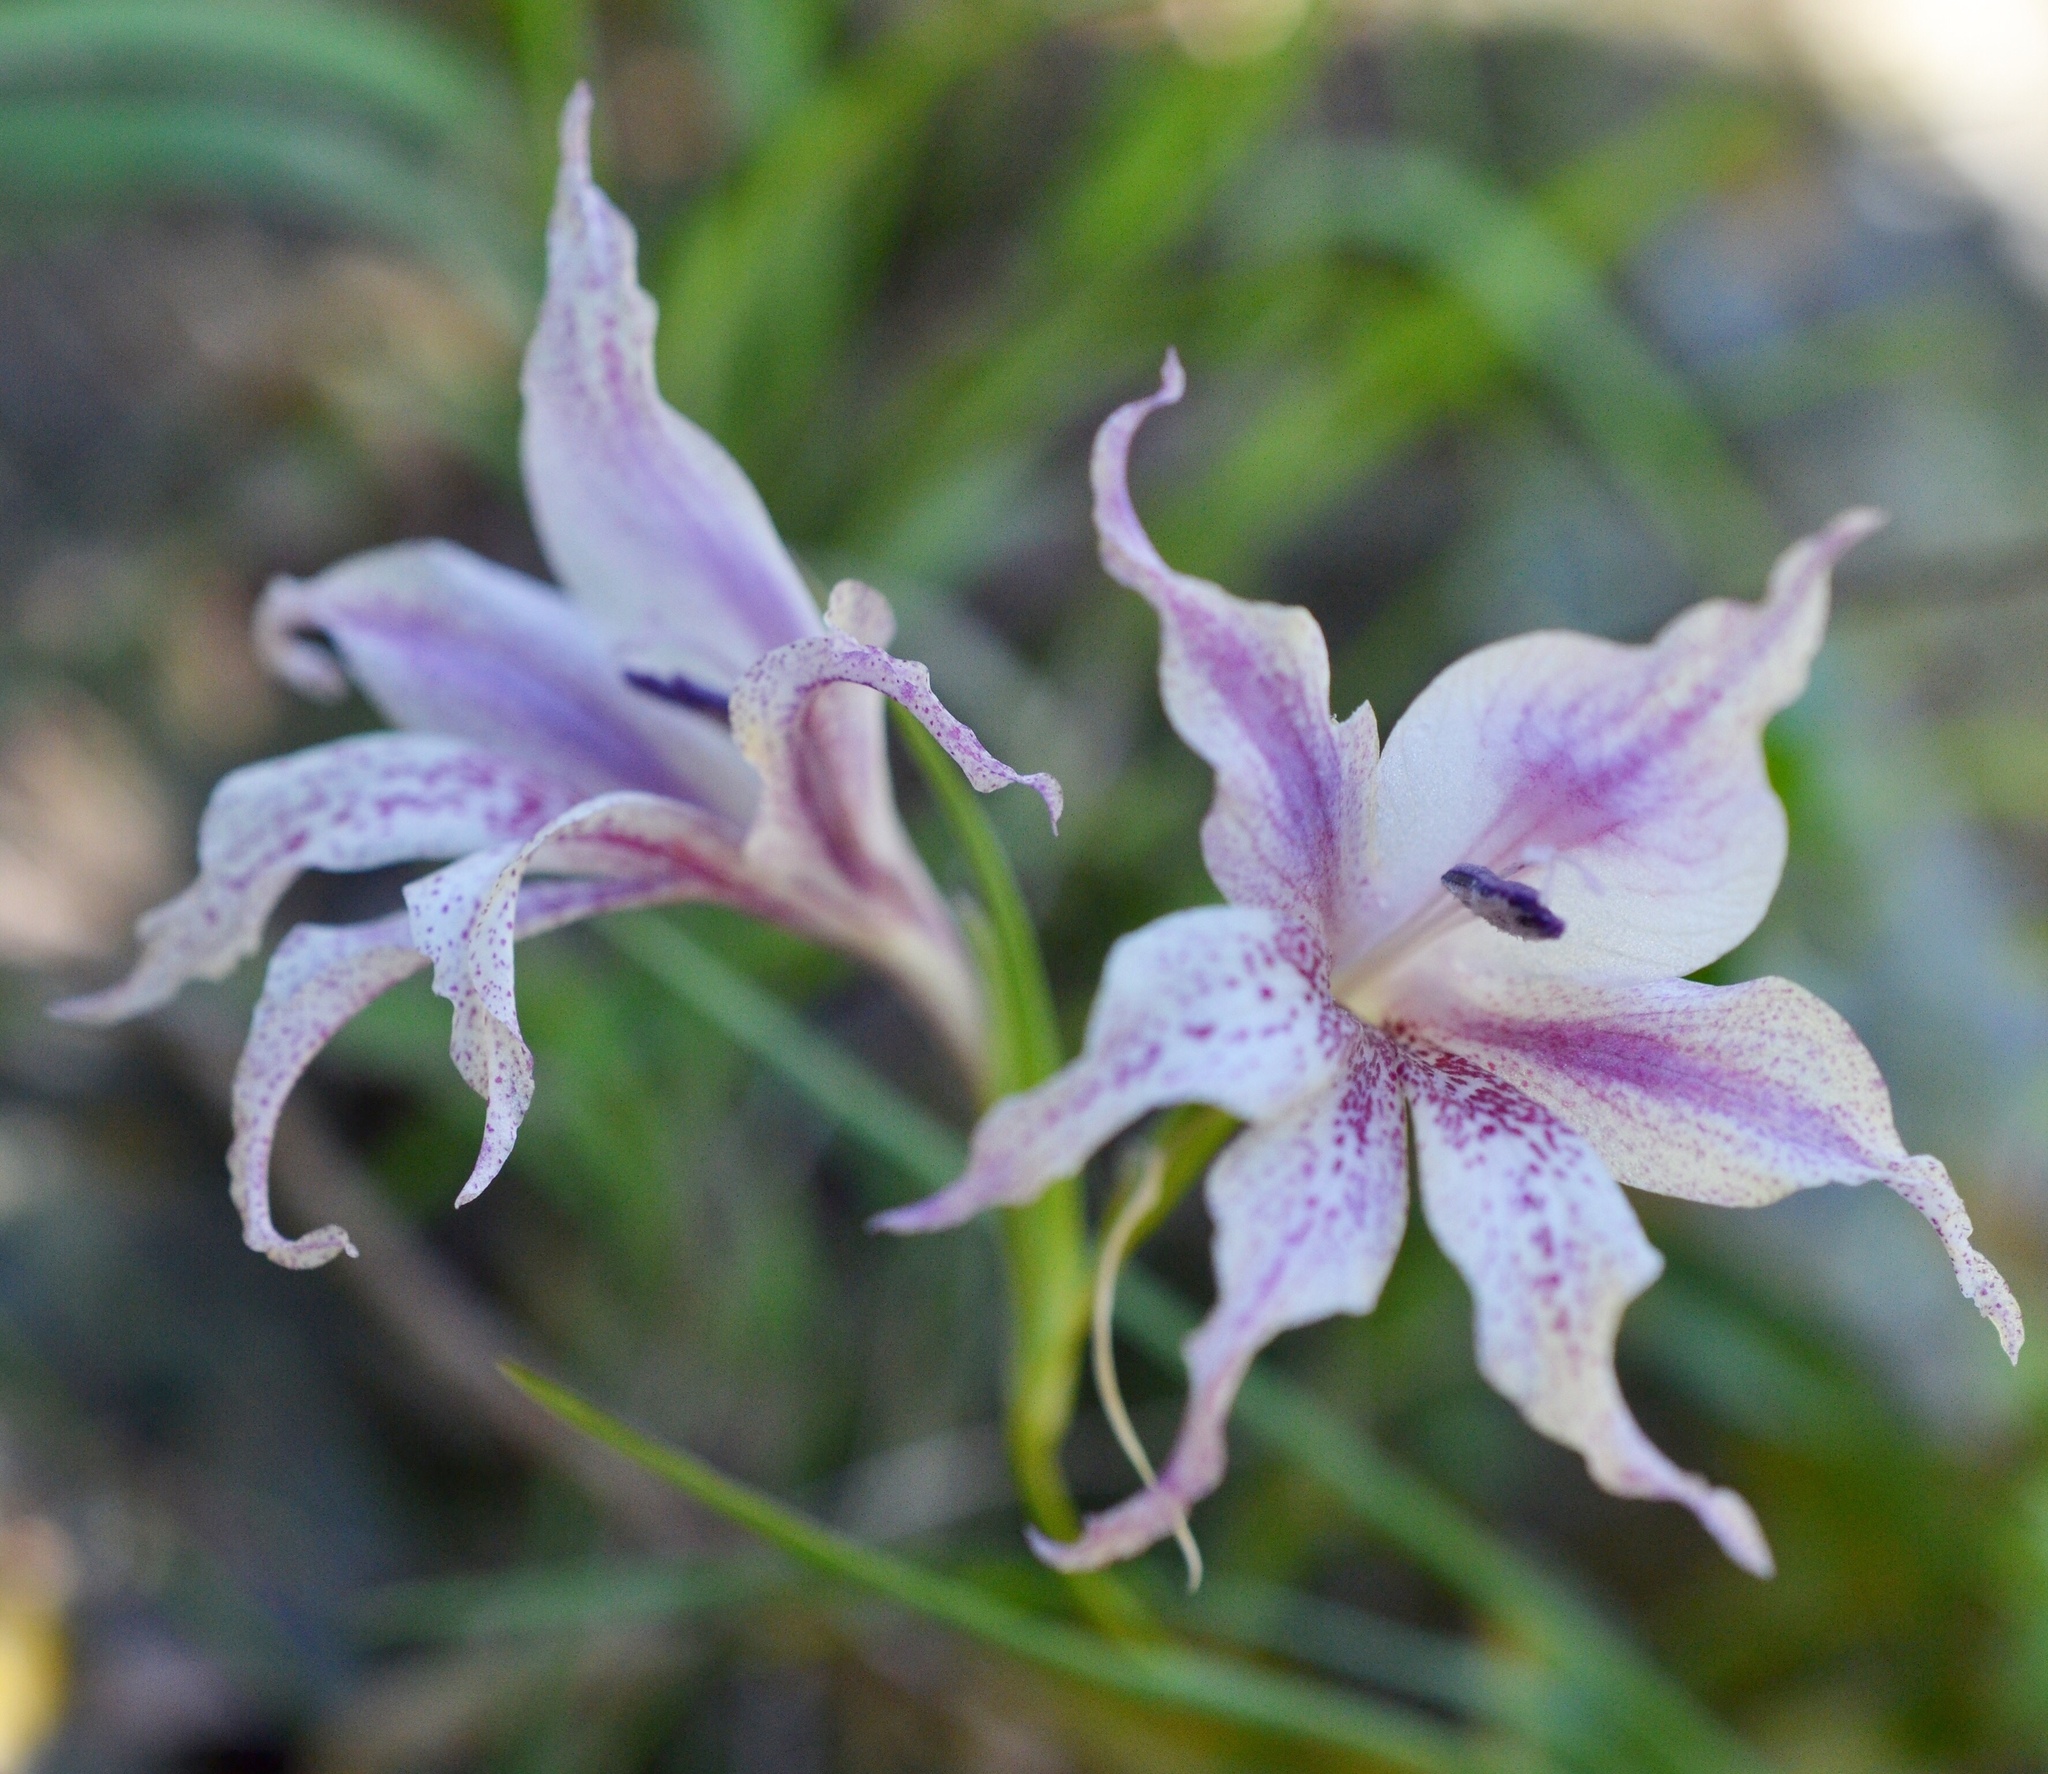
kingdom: Plantae
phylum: Tracheophyta
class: Liliopsida
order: Asparagales
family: Iridaceae
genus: Gladiolus
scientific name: Gladiolus maculatus
